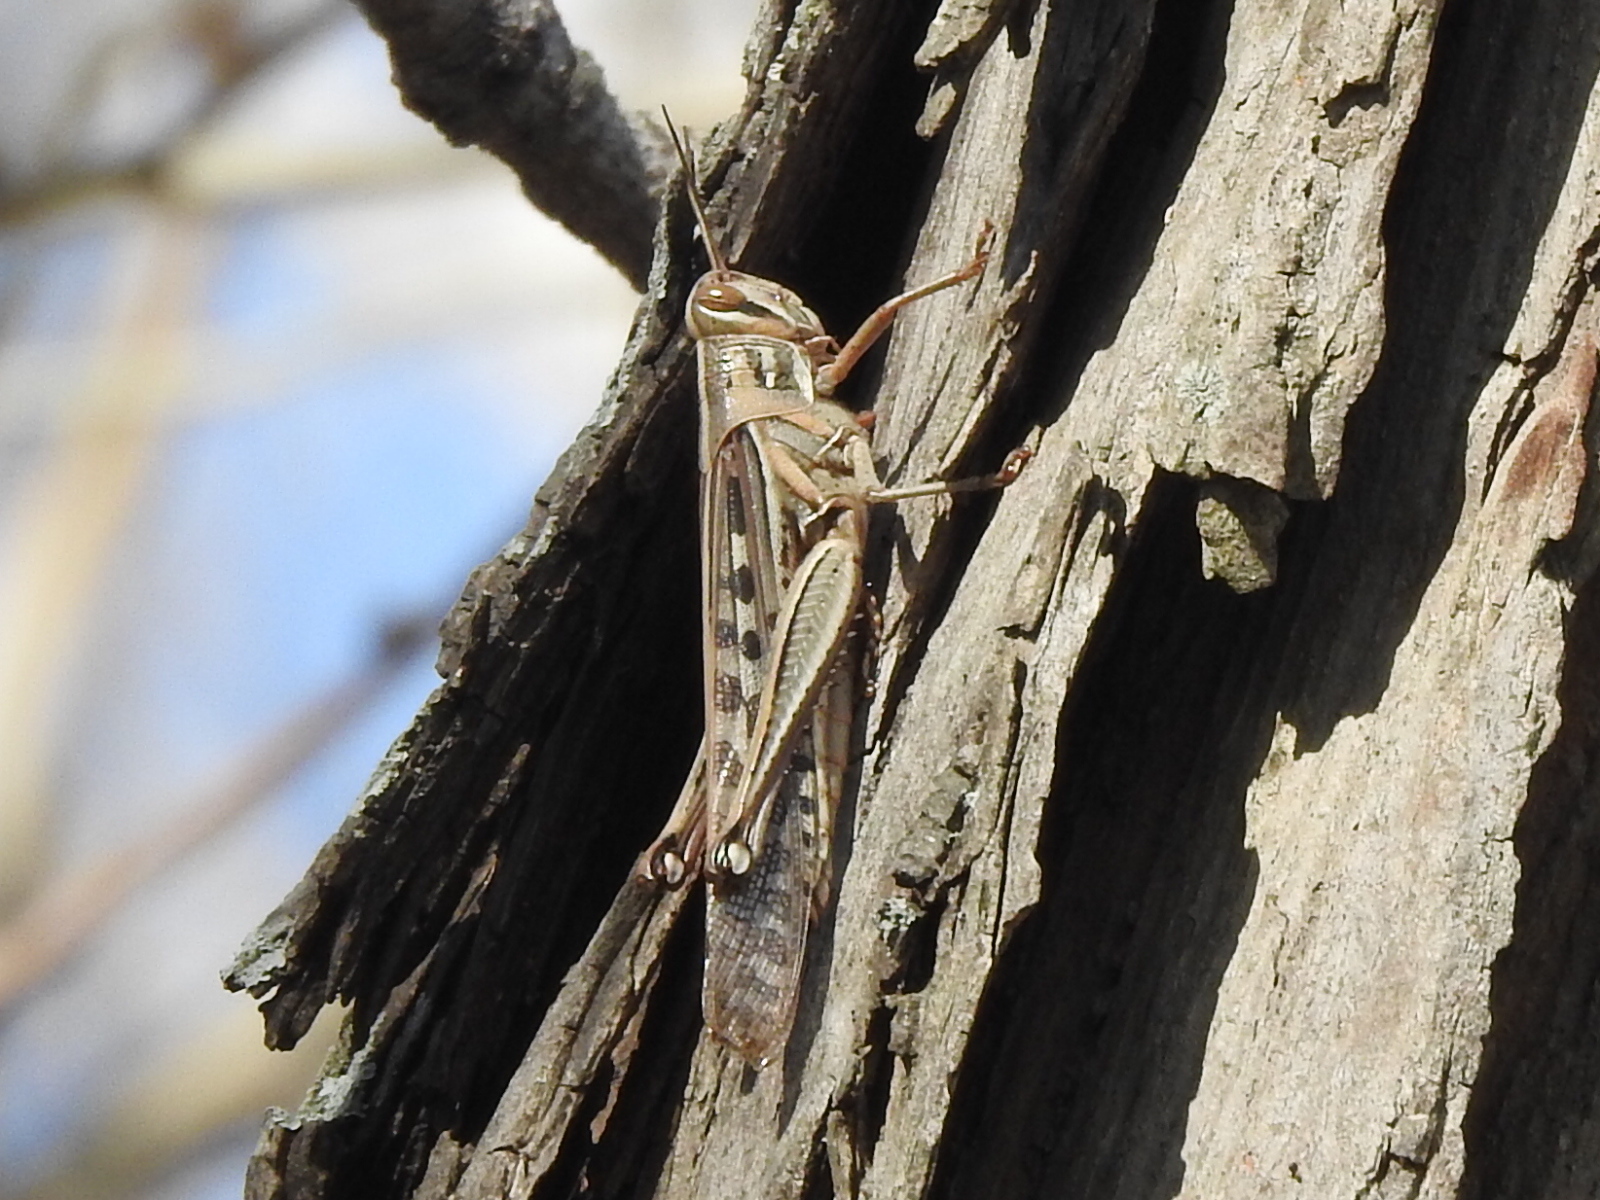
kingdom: Animalia
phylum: Arthropoda
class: Insecta
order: Orthoptera
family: Acrididae
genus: Schistocerca
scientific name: Schistocerca americana
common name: American bird locust
